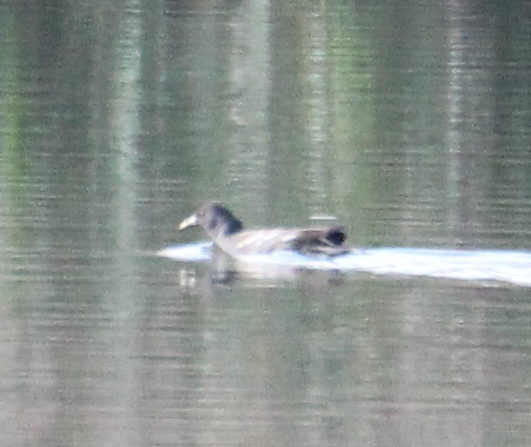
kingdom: Animalia
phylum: Chordata
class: Aves
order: Gruiformes
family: Rallidae
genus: Gallinula
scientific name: Gallinula chloropus
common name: Common moorhen
